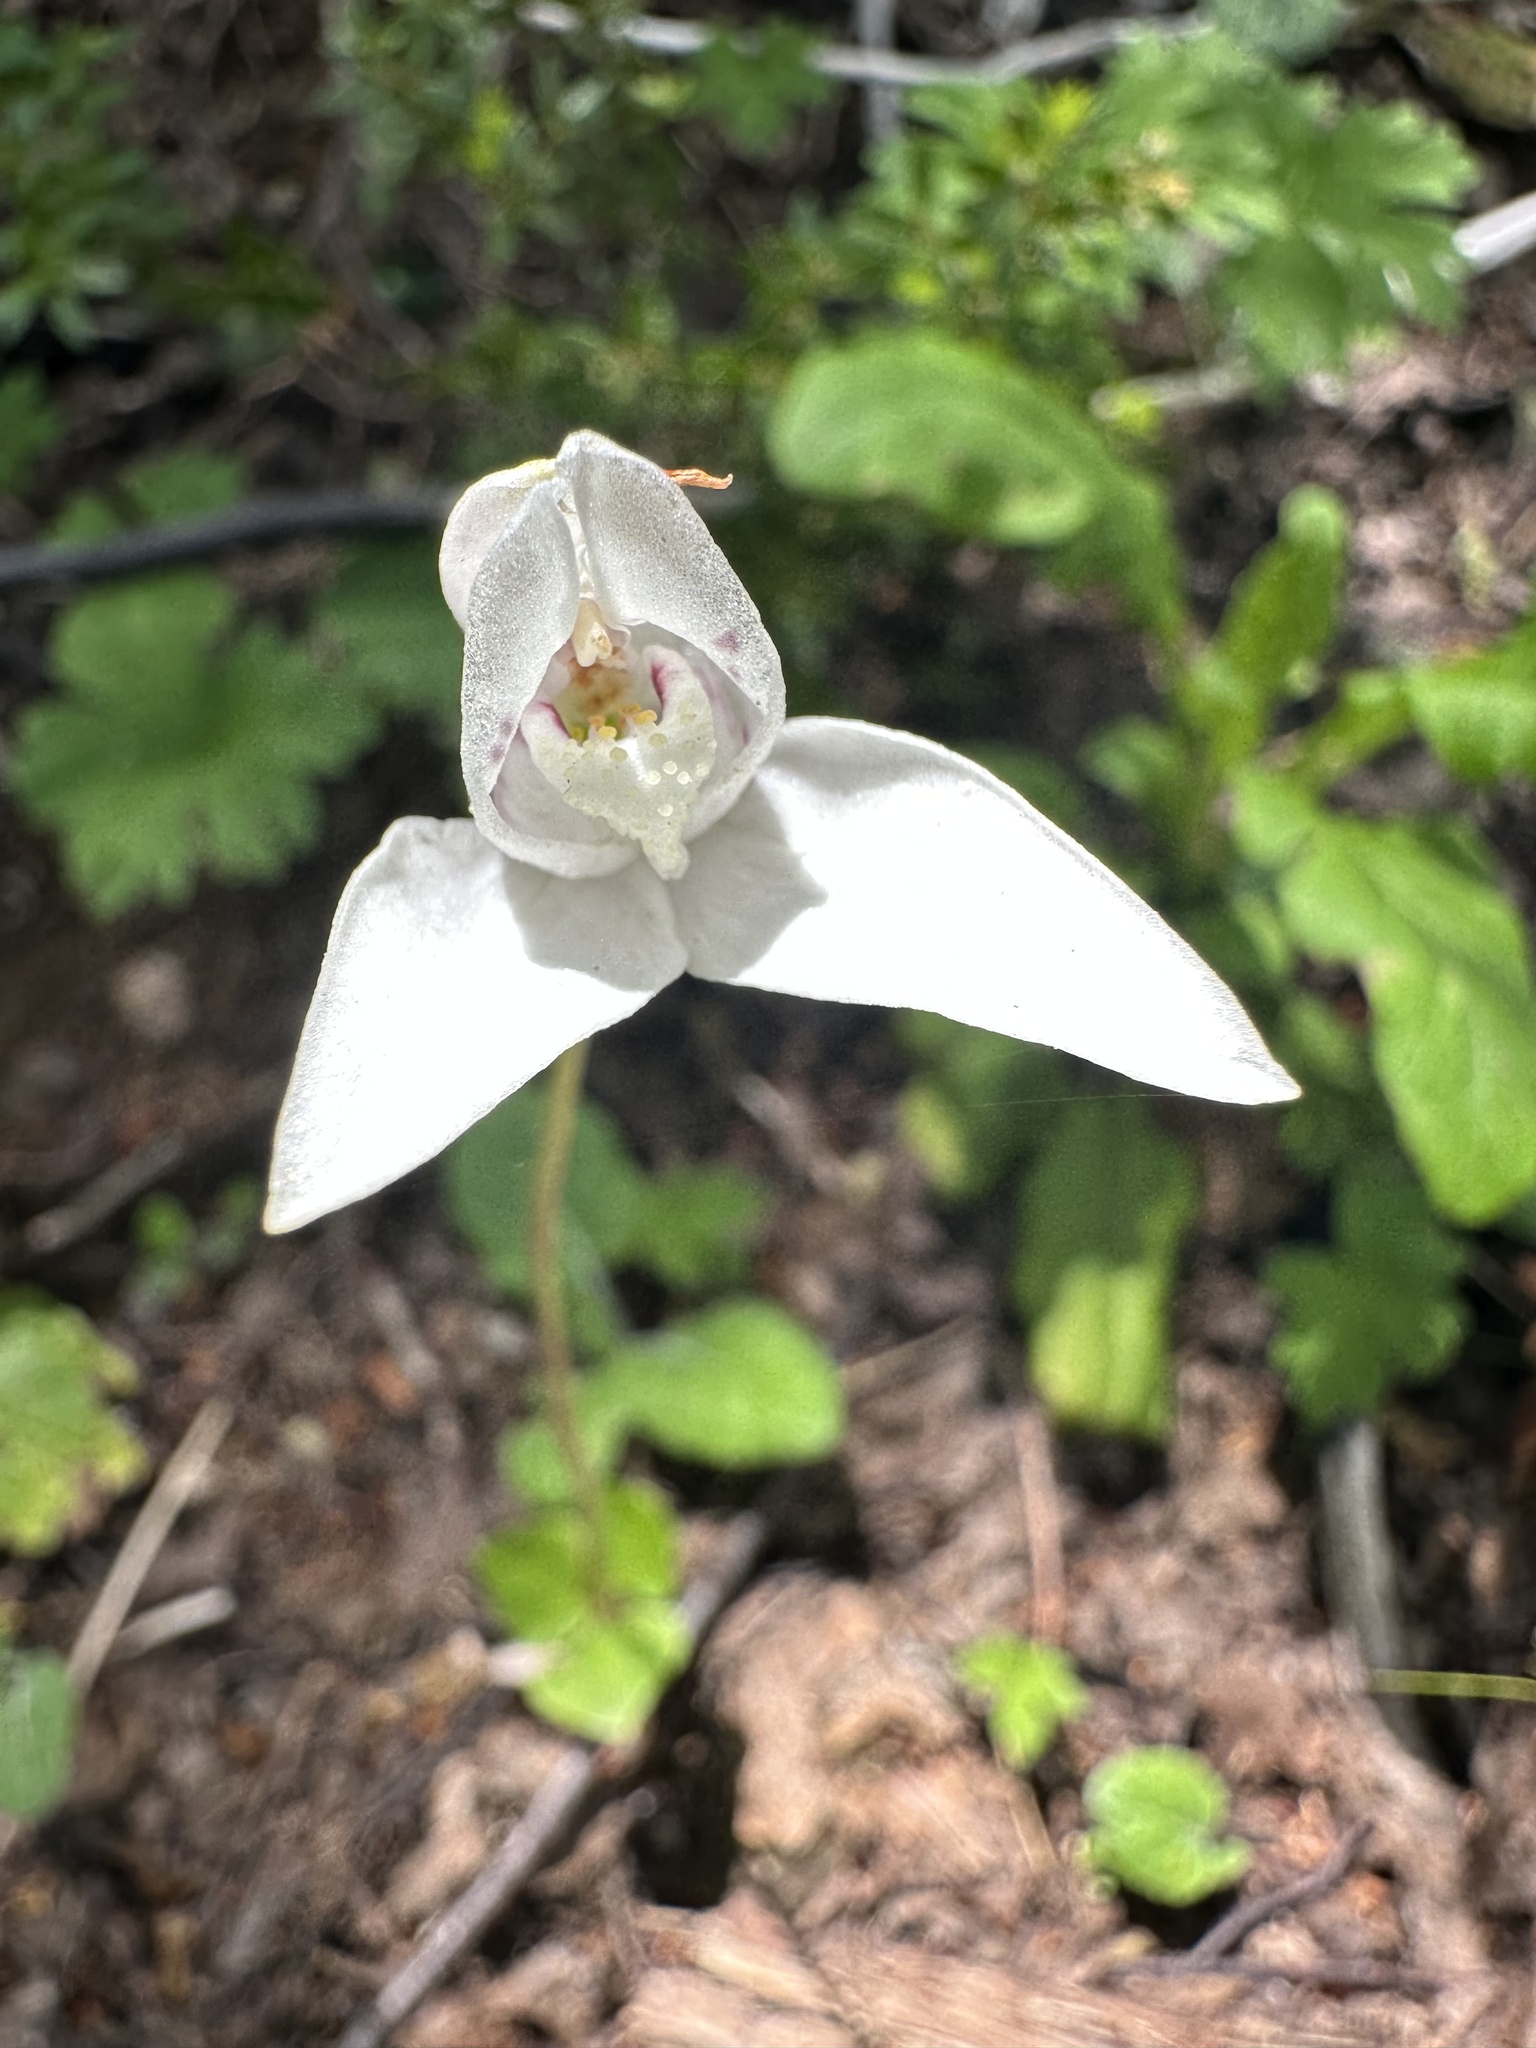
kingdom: Plantae
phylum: Tracheophyta
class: Liliopsida
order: Asparagales
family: Orchidaceae
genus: Codonorchis
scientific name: Codonorchis lessonii
